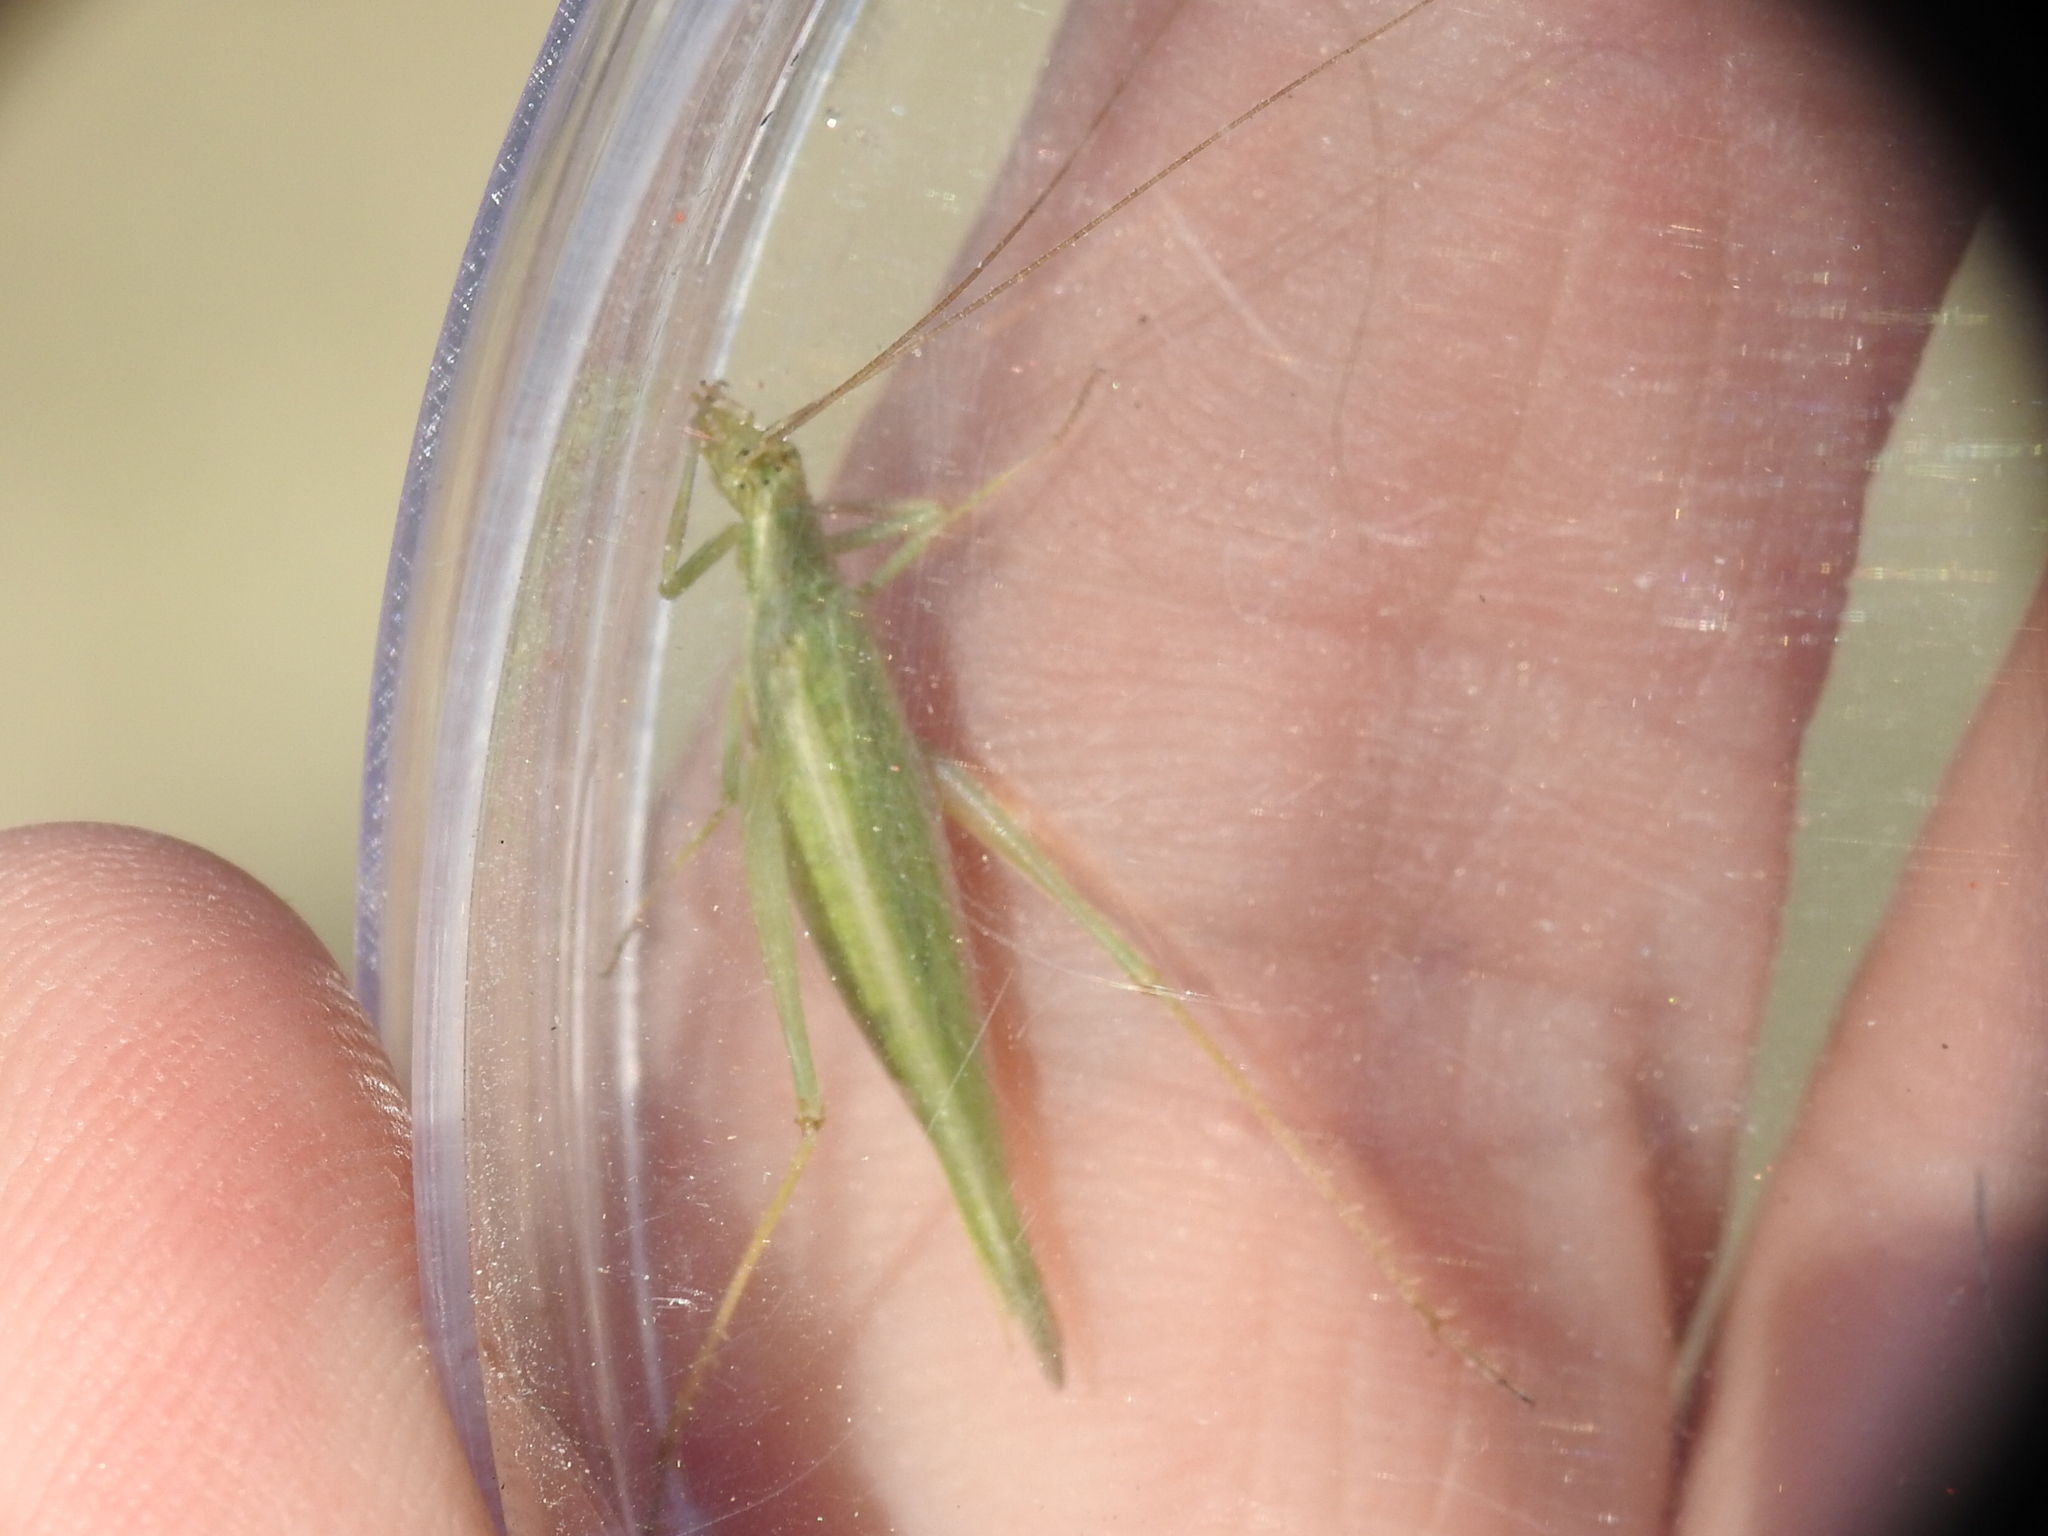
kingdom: Animalia
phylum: Arthropoda
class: Insecta
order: Orthoptera
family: Gryllidae
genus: Oecanthus
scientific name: Oecanthus quadripunctatus
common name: Four-spotted tree cricket
